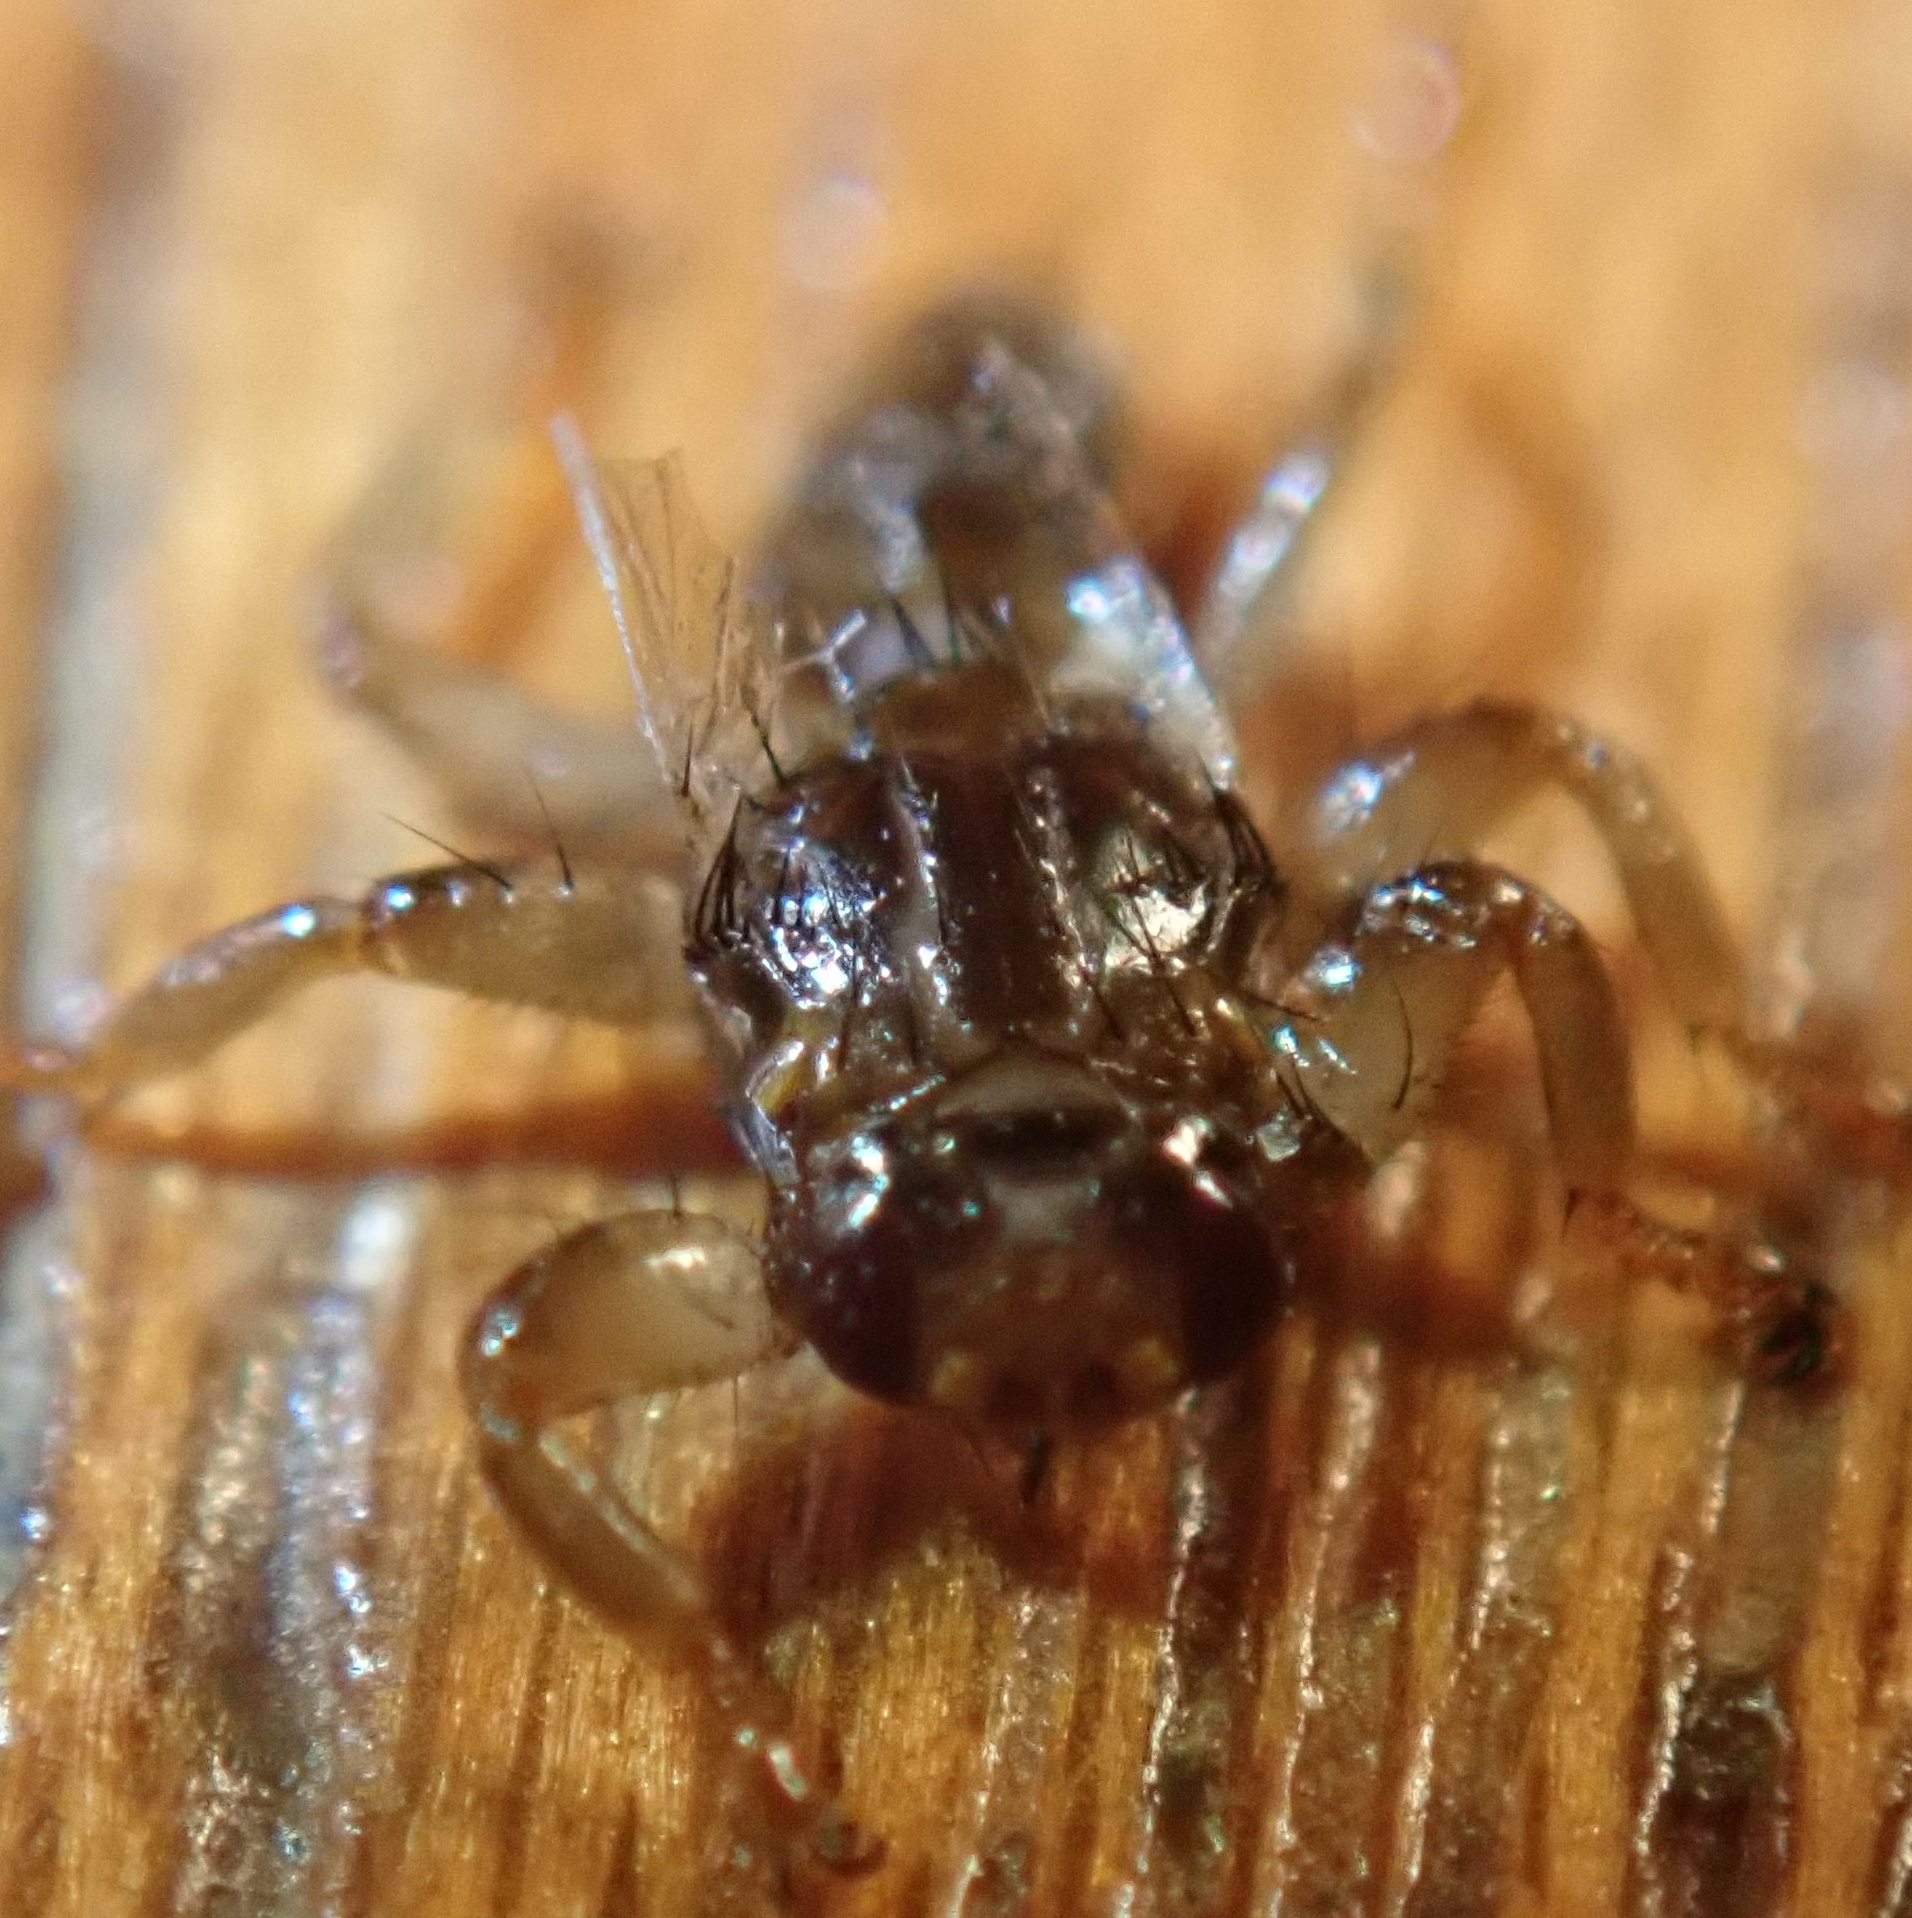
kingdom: Animalia
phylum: Arthropoda
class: Insecta
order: Diptera
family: Hippoboscidae
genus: Lipoptena
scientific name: Lipoptena cervi
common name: Deer ked
